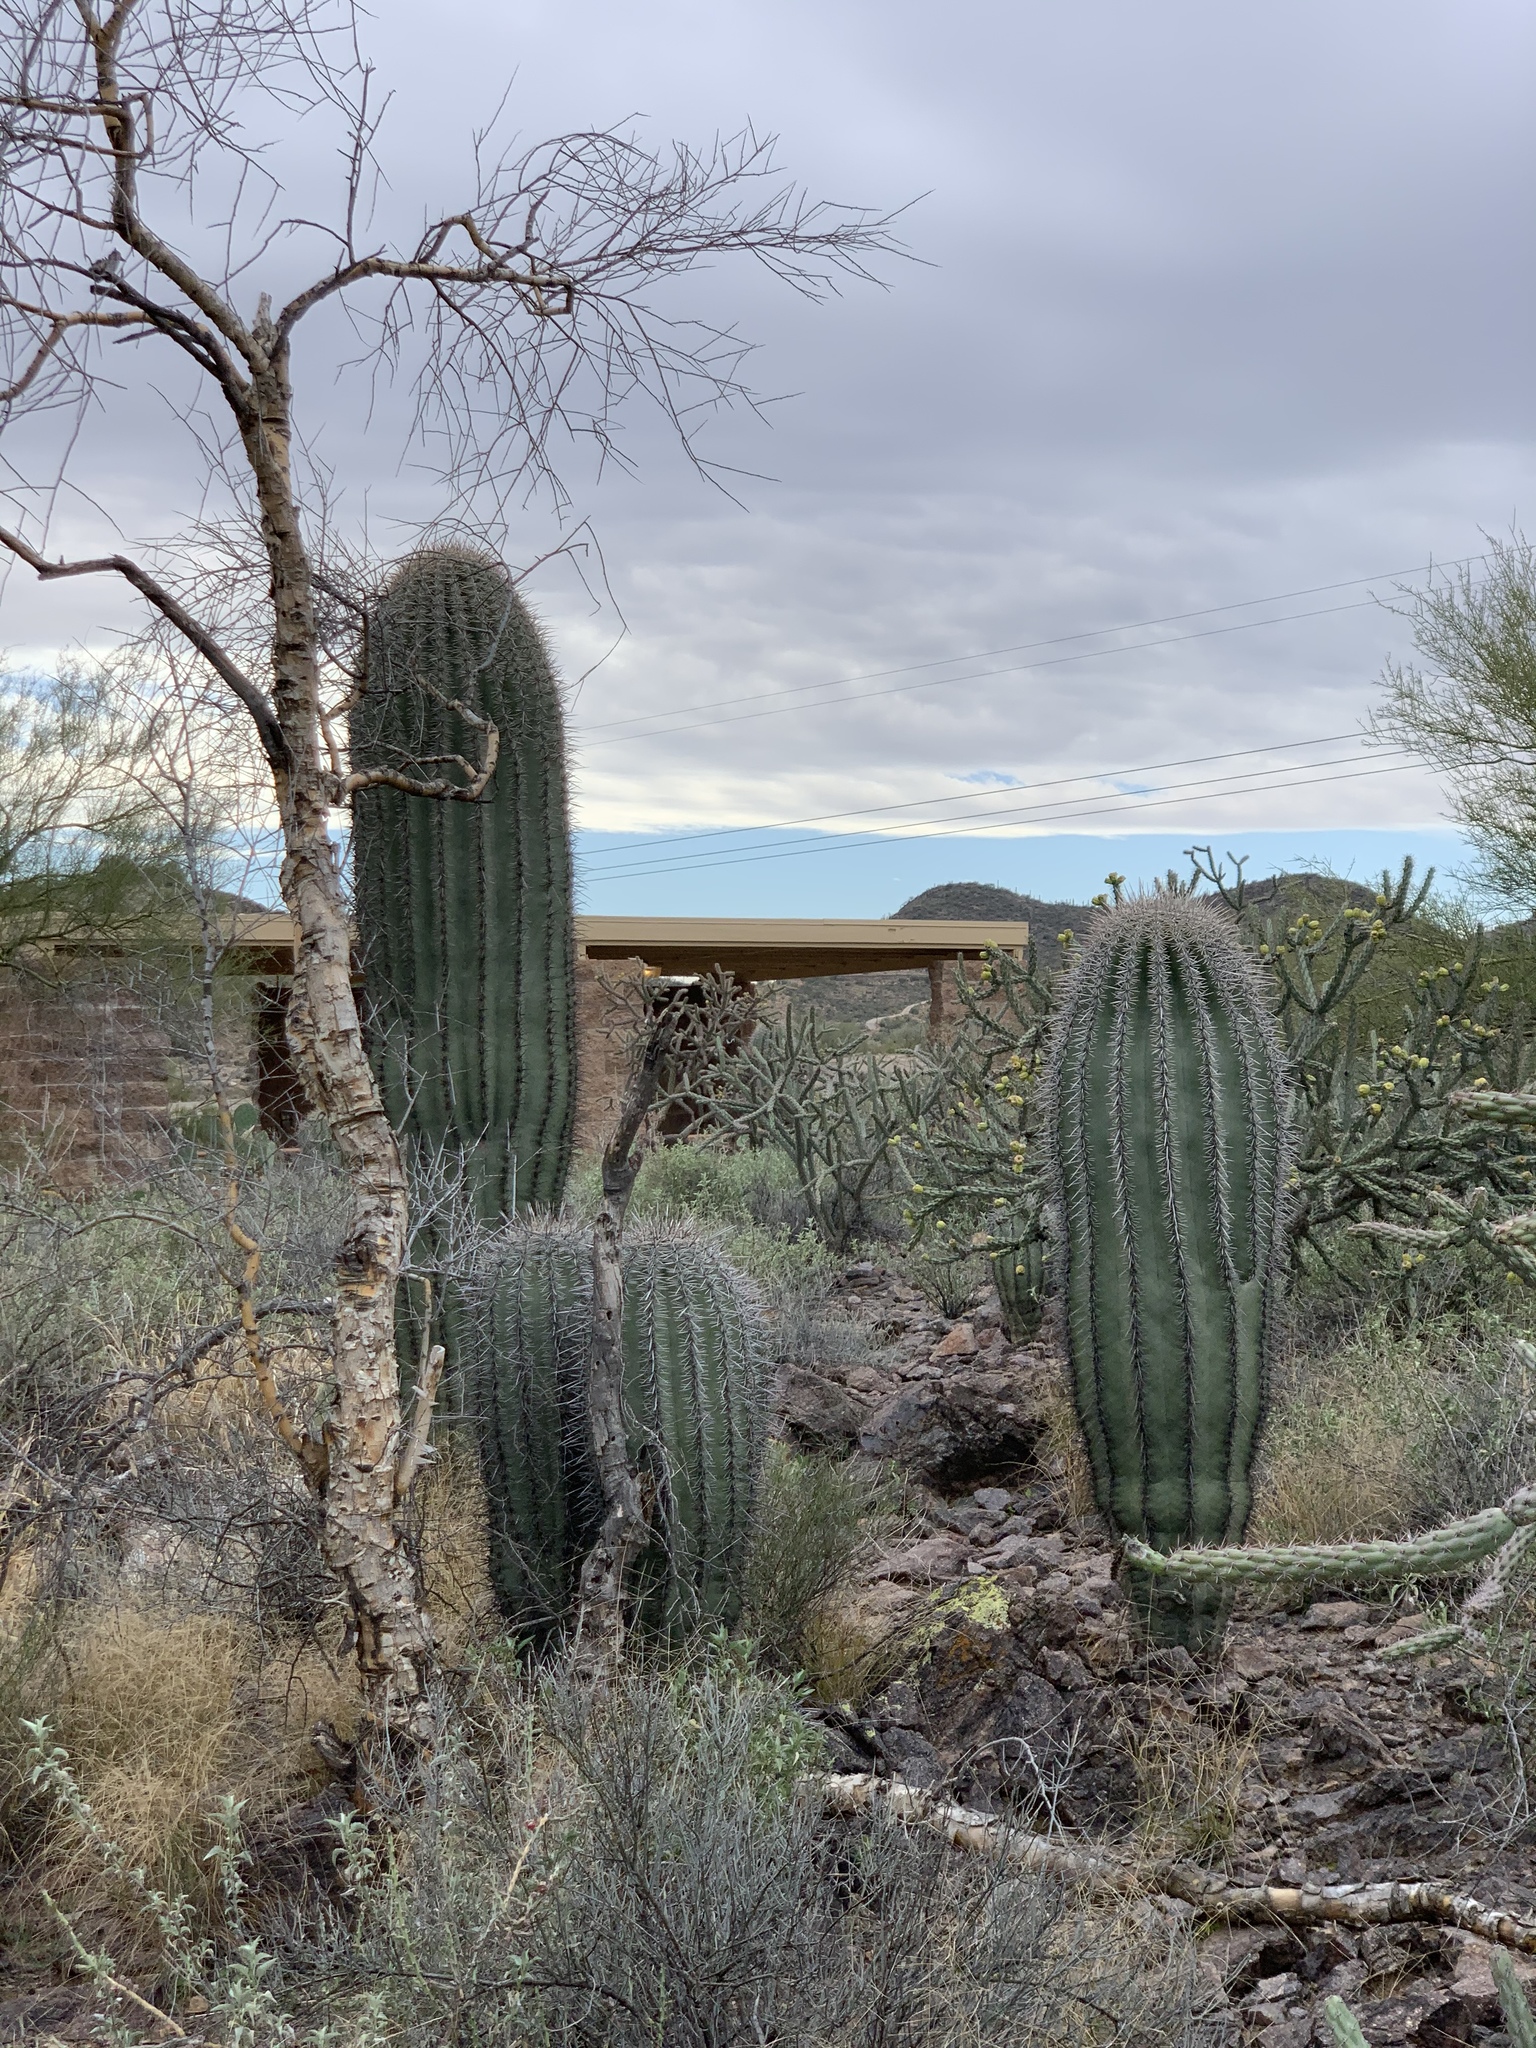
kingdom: Plantae
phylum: Tracheophyta
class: Magnoliopsida
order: Caryophyllales
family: Cactaceae
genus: Carnegiea
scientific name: Carnegiea gigantea
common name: Saguaro
